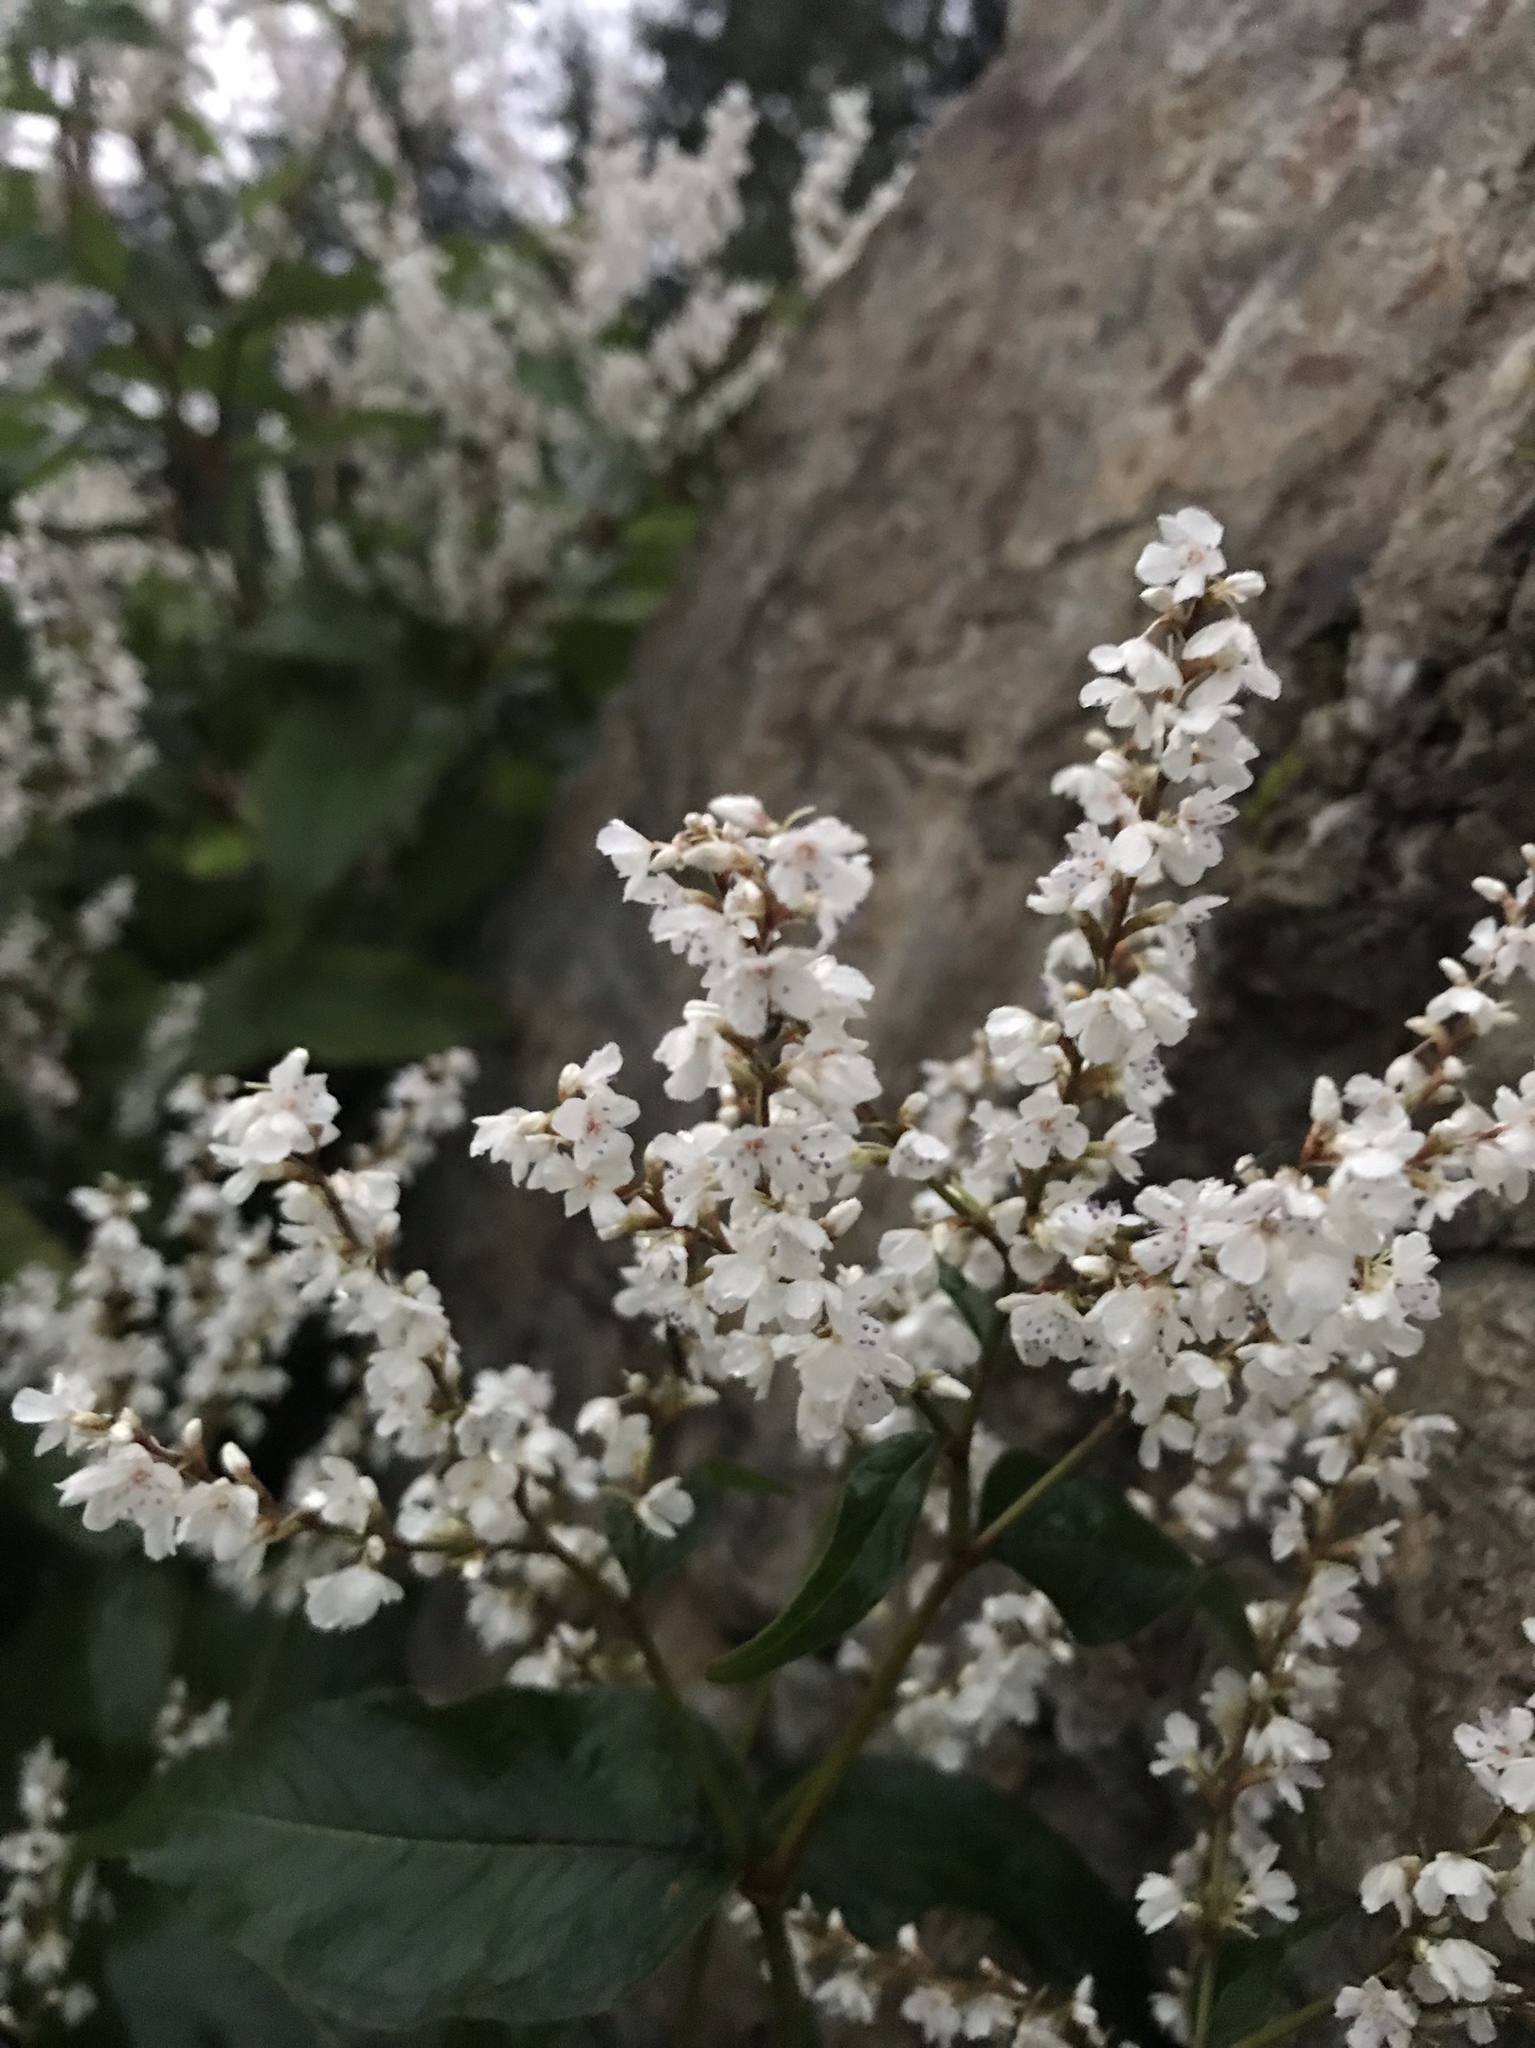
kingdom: Plantae
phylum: Tracheophyta
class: Magnoliopsida
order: Caryophyllales
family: Polygonaceae
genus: Reynoutria
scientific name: Reynoutria japonica
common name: Japanese knotweed
